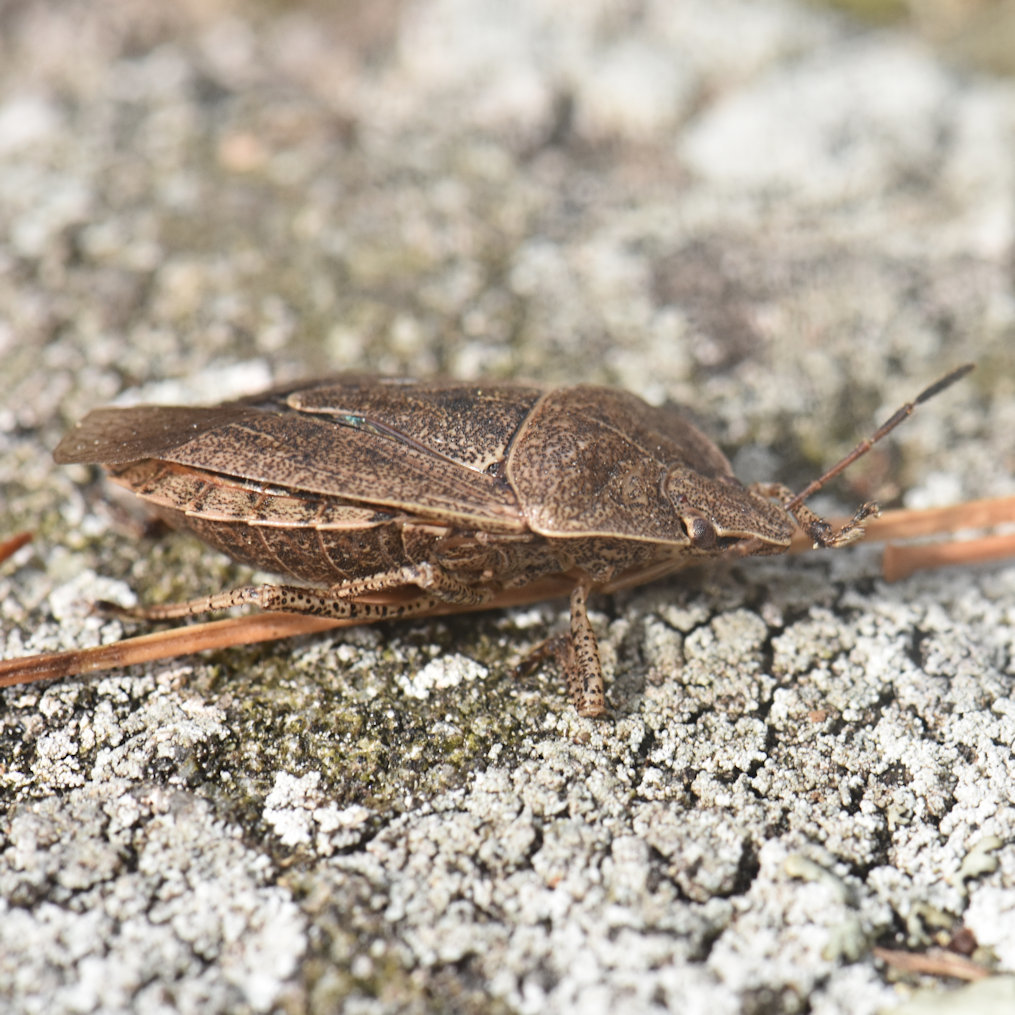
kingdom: Animalia
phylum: Arthropoda
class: Insecta
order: Hemiptera
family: Pentatomidae
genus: Menecles
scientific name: Menecles insertus
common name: Elf shoe stink bug
